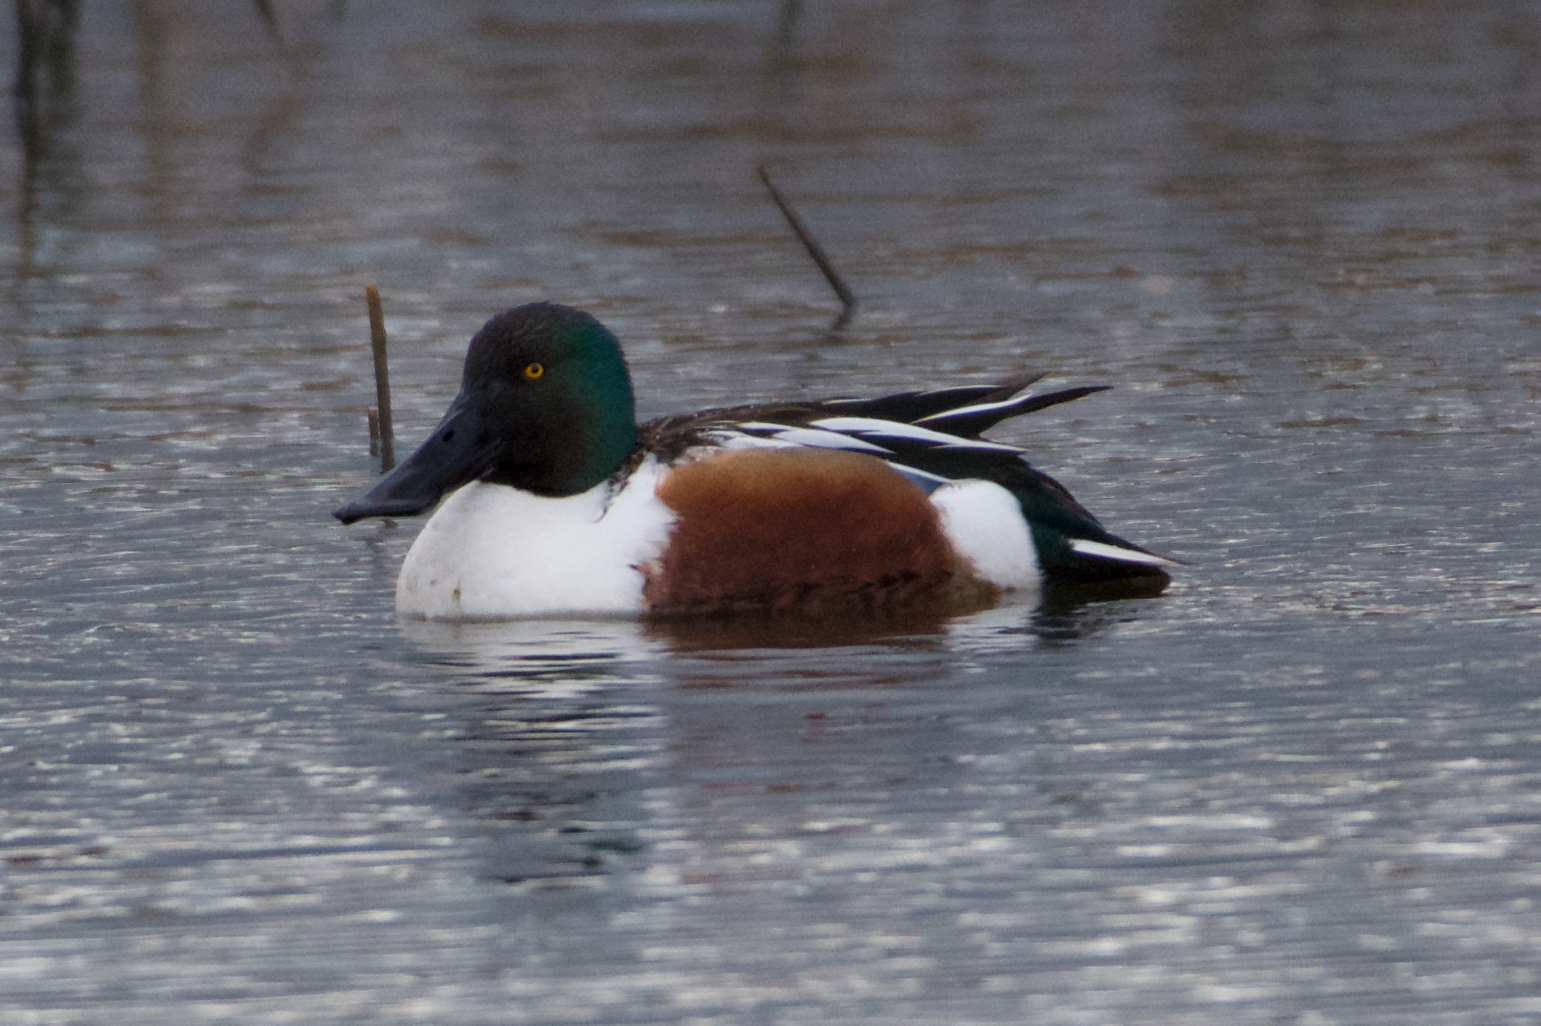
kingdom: Animalia
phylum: Chordata
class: Aves
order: Anseriformes
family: Anatidae
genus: Spatula
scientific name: Spatula clypeata
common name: Northern shoveler
